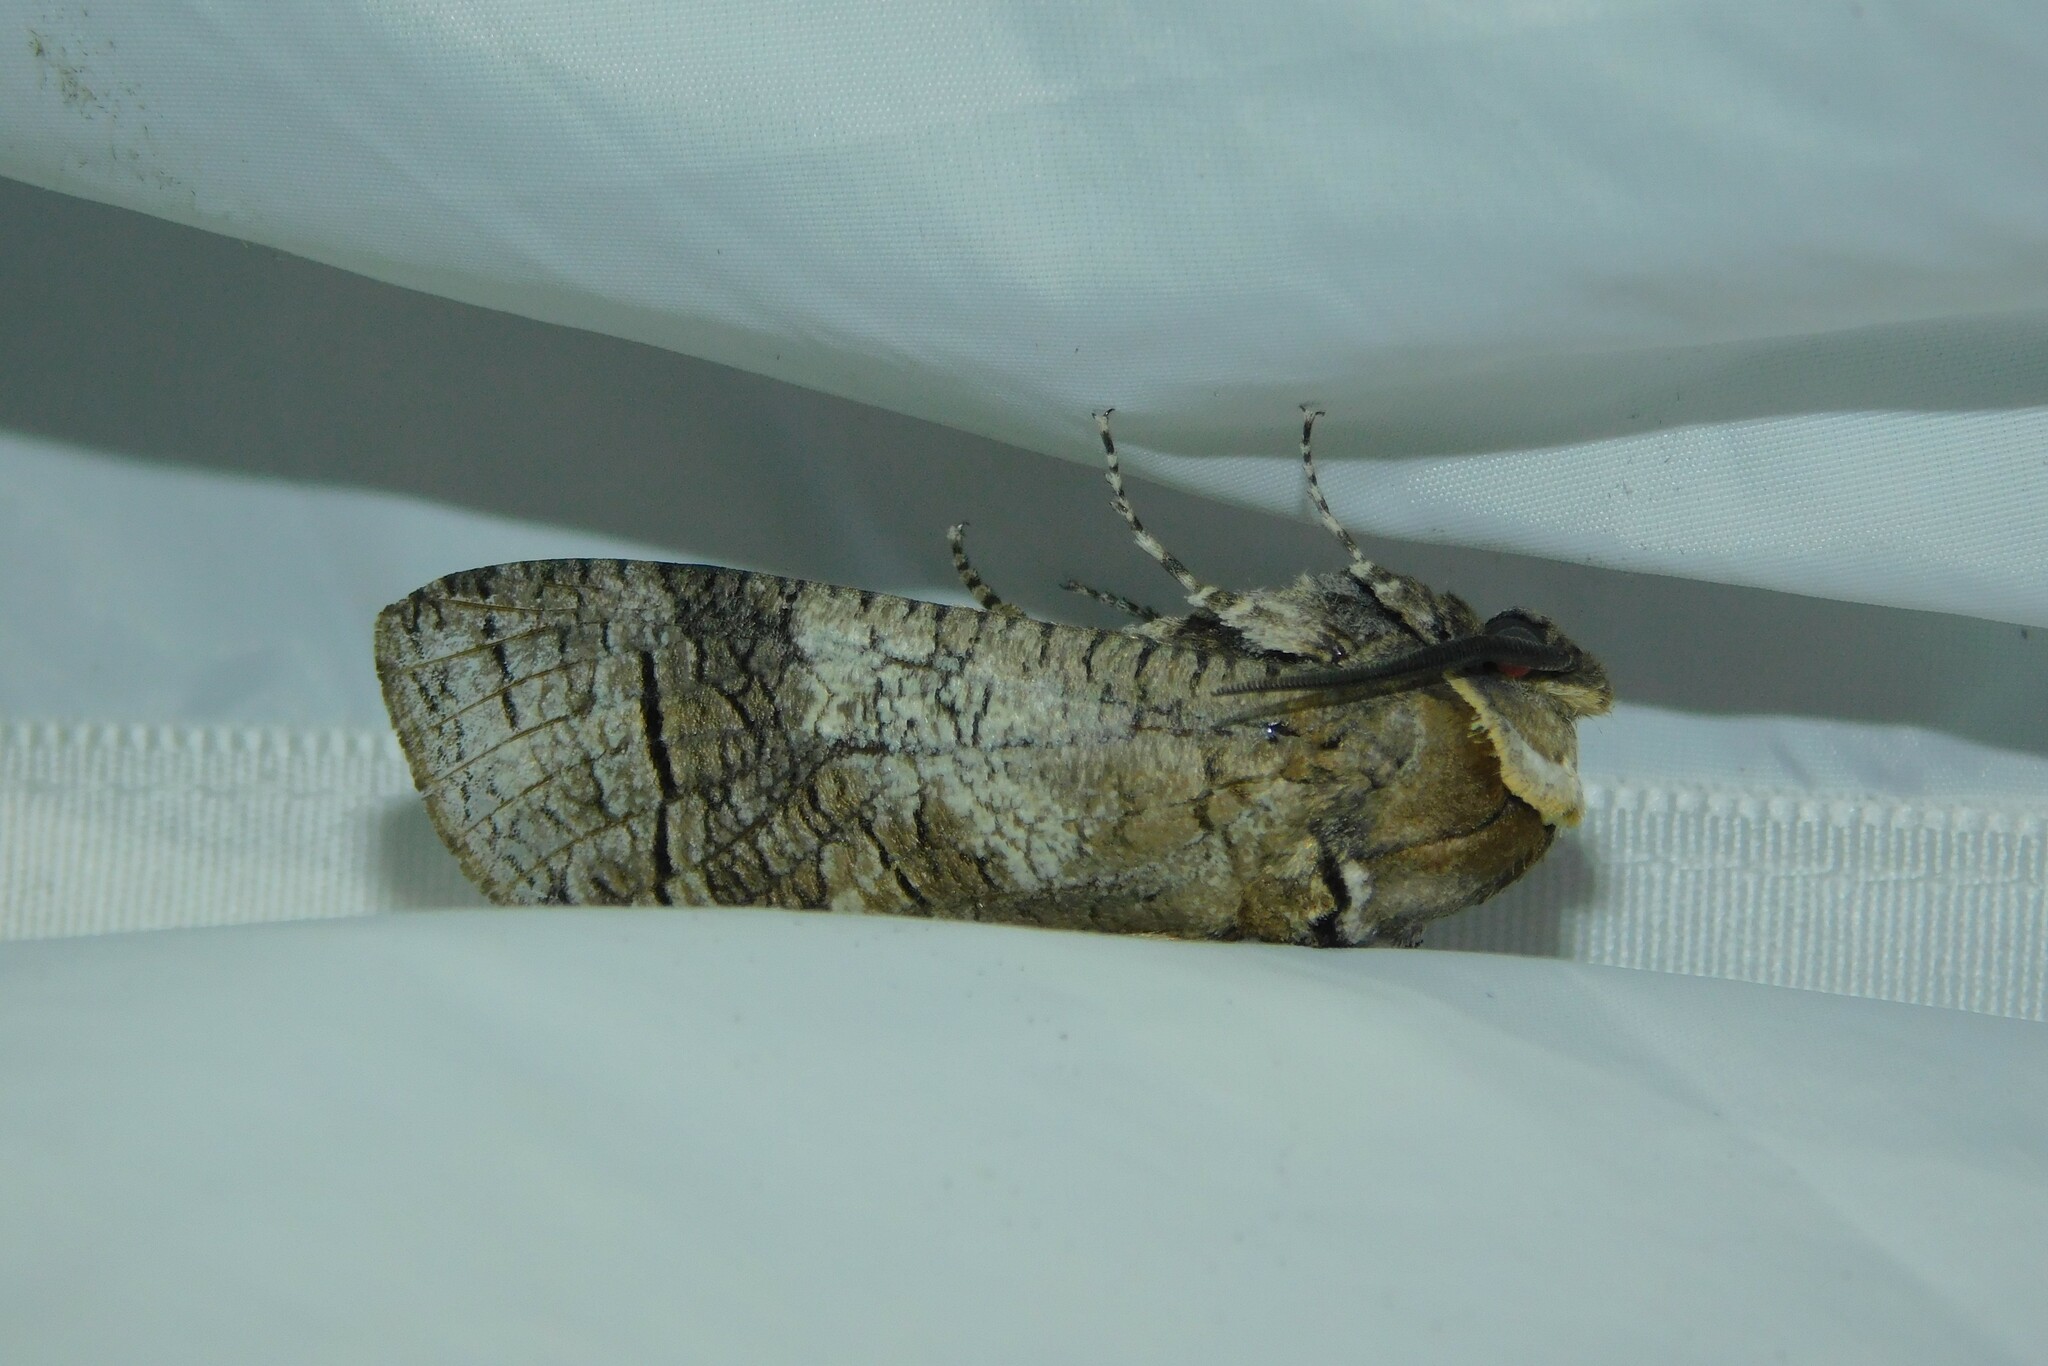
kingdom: Animalia
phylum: Arthropoda
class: Insecta
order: Lepidoptera
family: Cossidae
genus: Cossus
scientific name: Cossus cossus
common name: Goat moth
